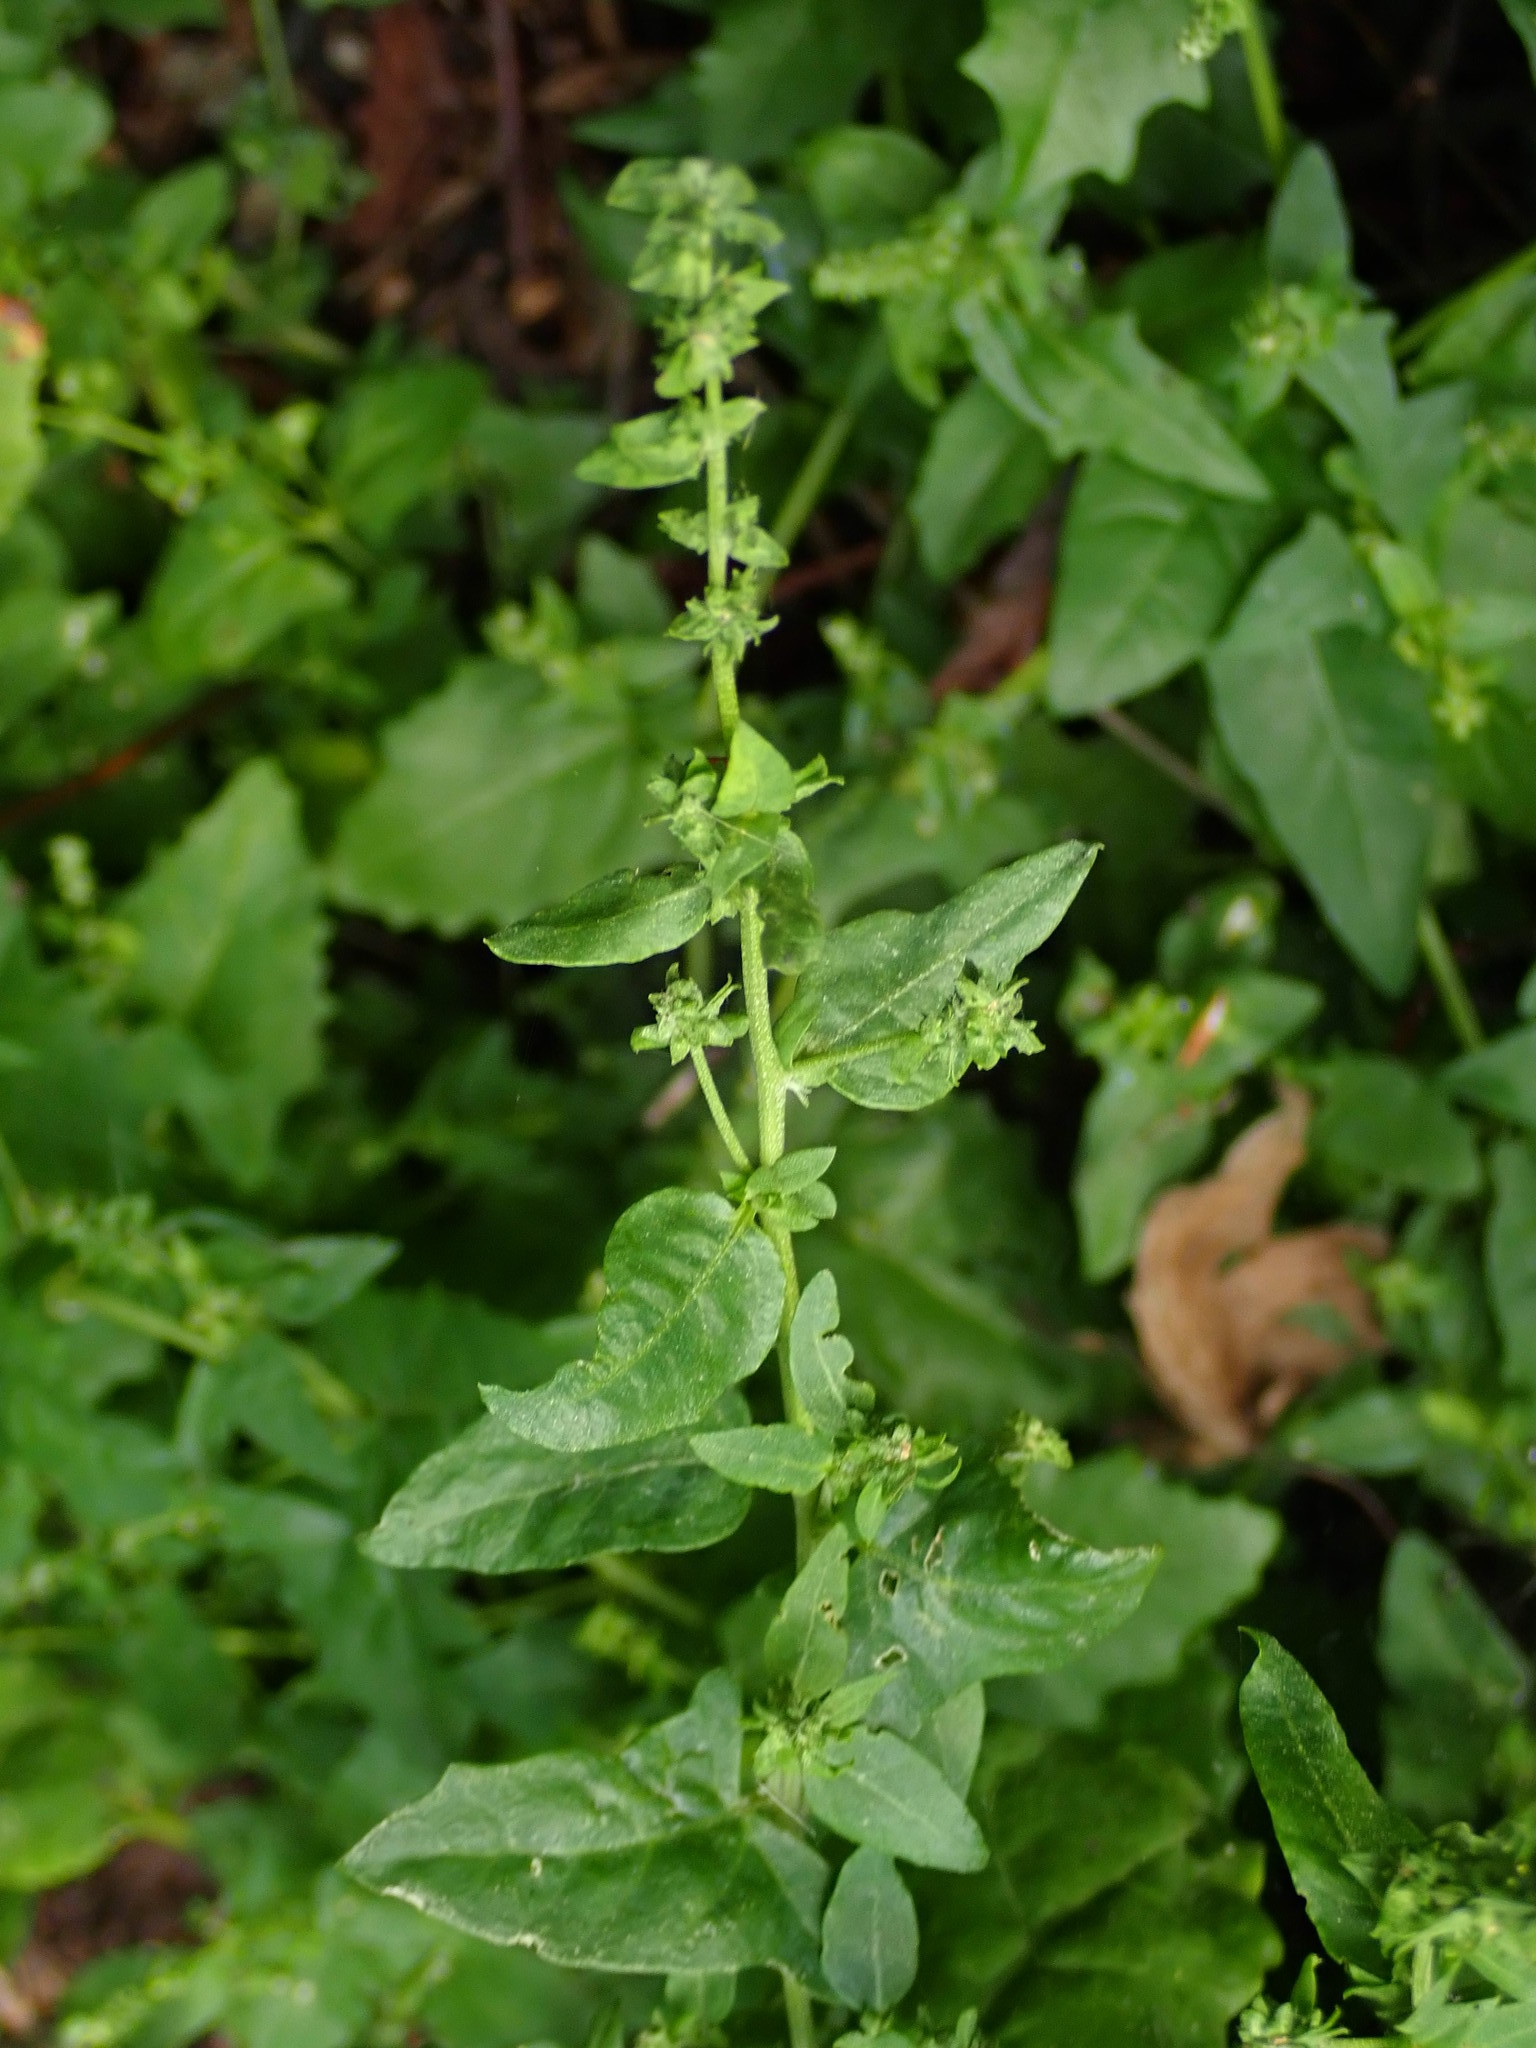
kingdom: Plantae
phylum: Tracheophyta
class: Magnoliopsida
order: Caryophyllales
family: Amaranthaceae
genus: Atriplex
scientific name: Atriplex prostrata
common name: Spear-leaved orache
